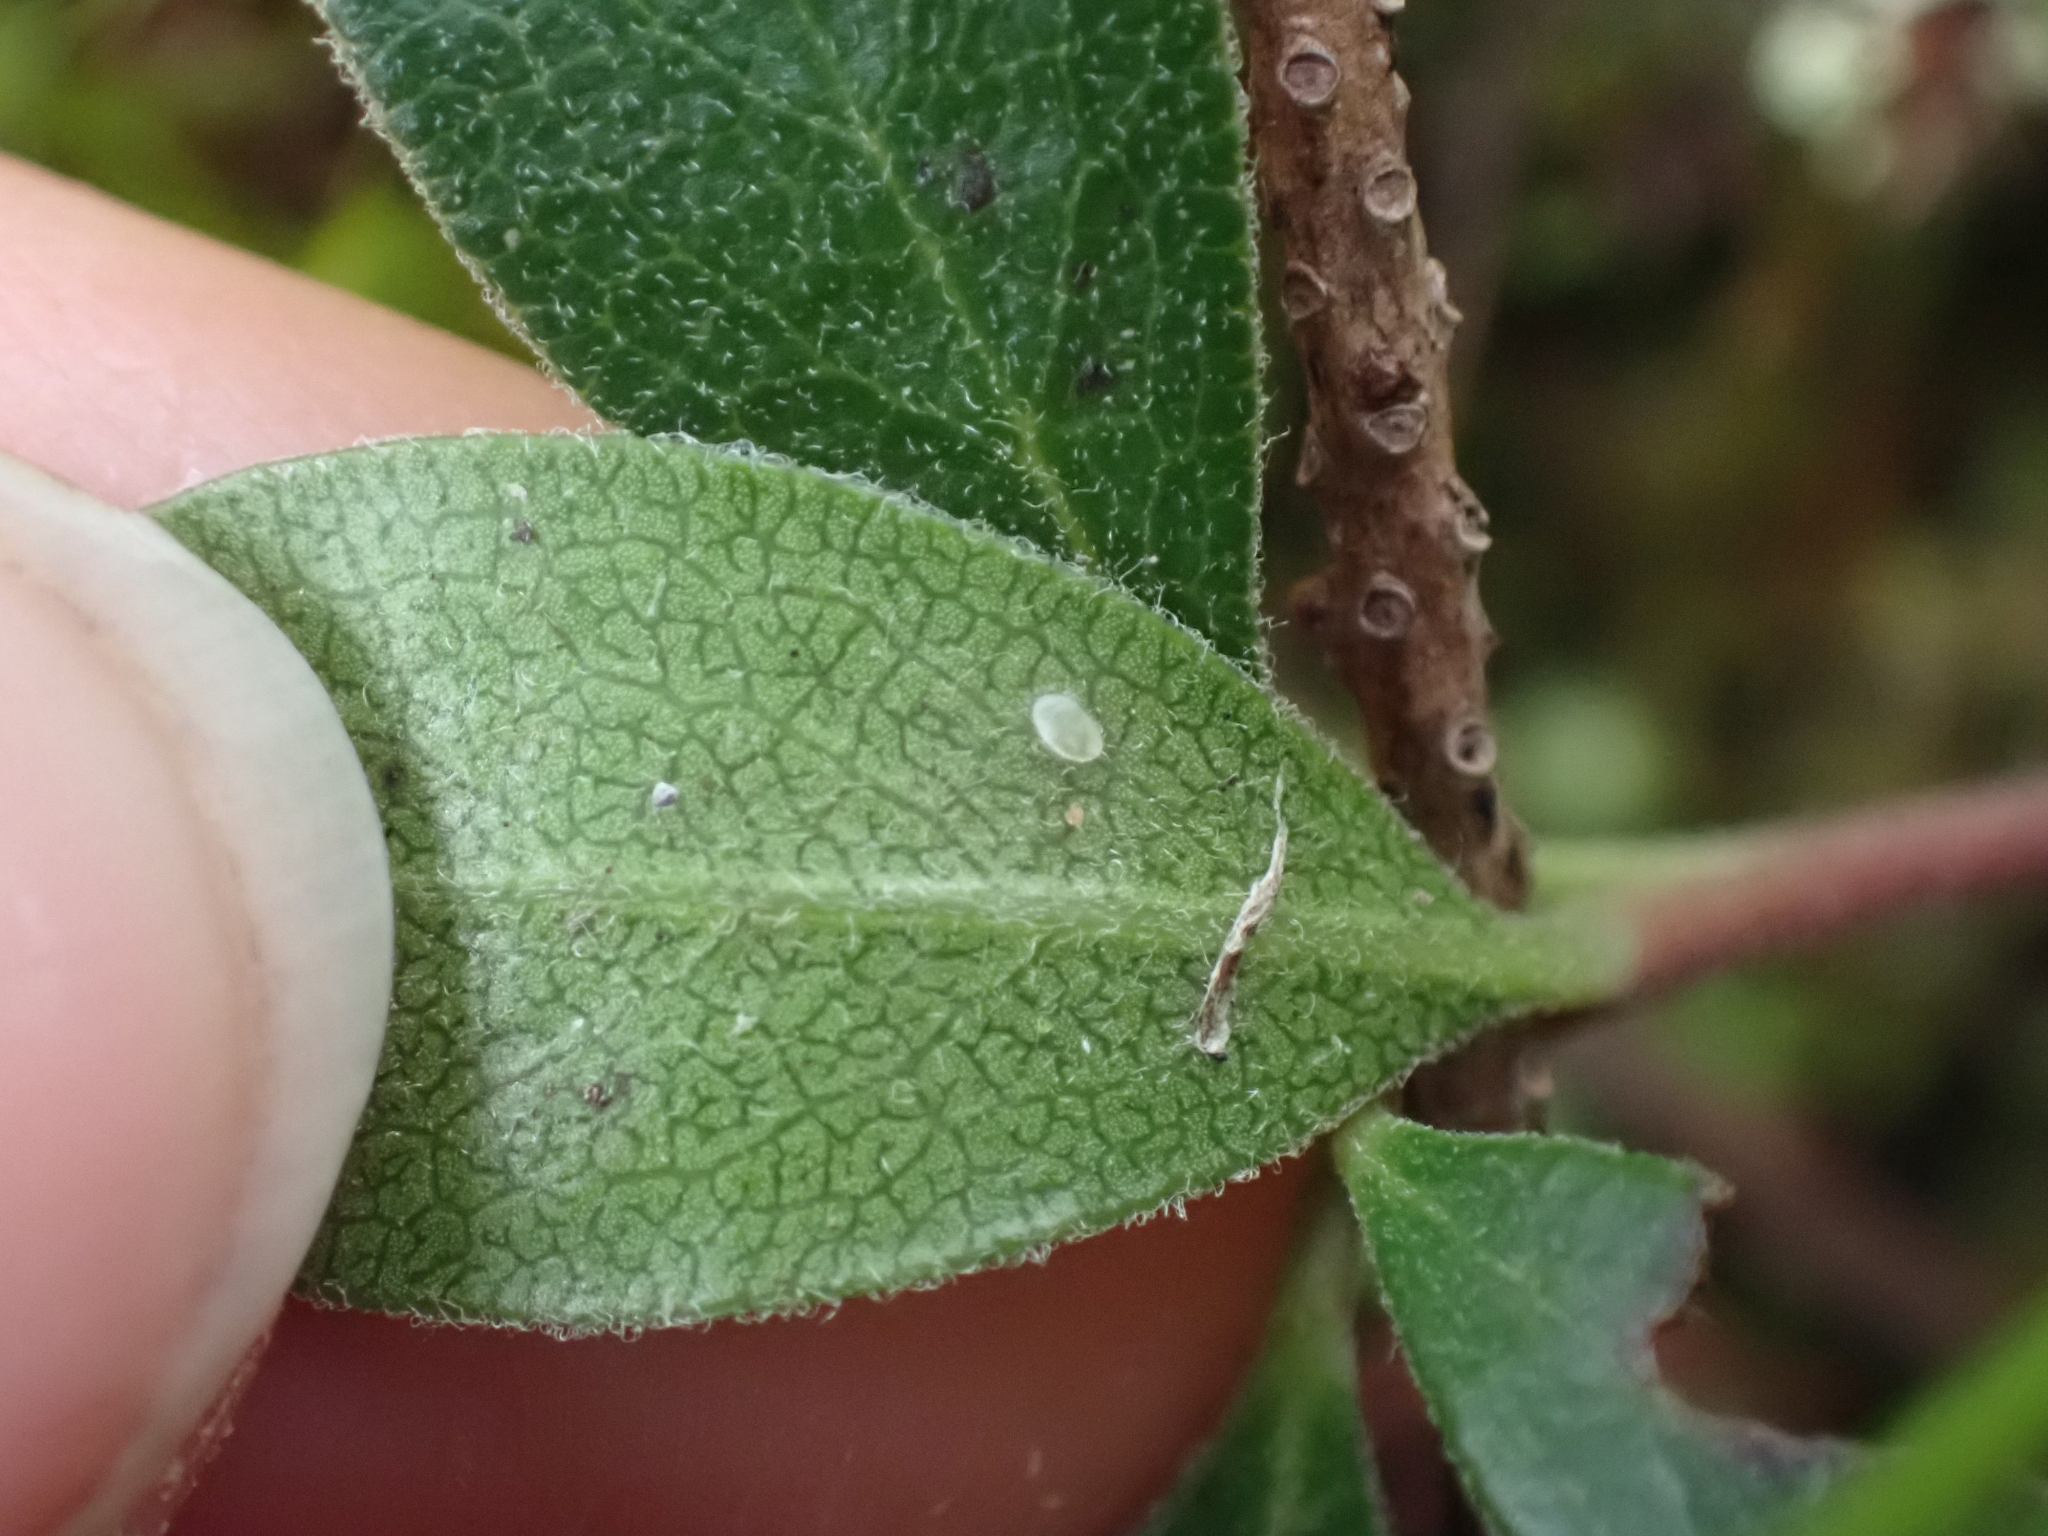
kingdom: Plantae
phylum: Tracheophyta
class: Magnoliopsida
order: Ericales
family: Ericaceae
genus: Arctostaphylos
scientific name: Arctostaphylos uva-ursi
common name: Bearberry
